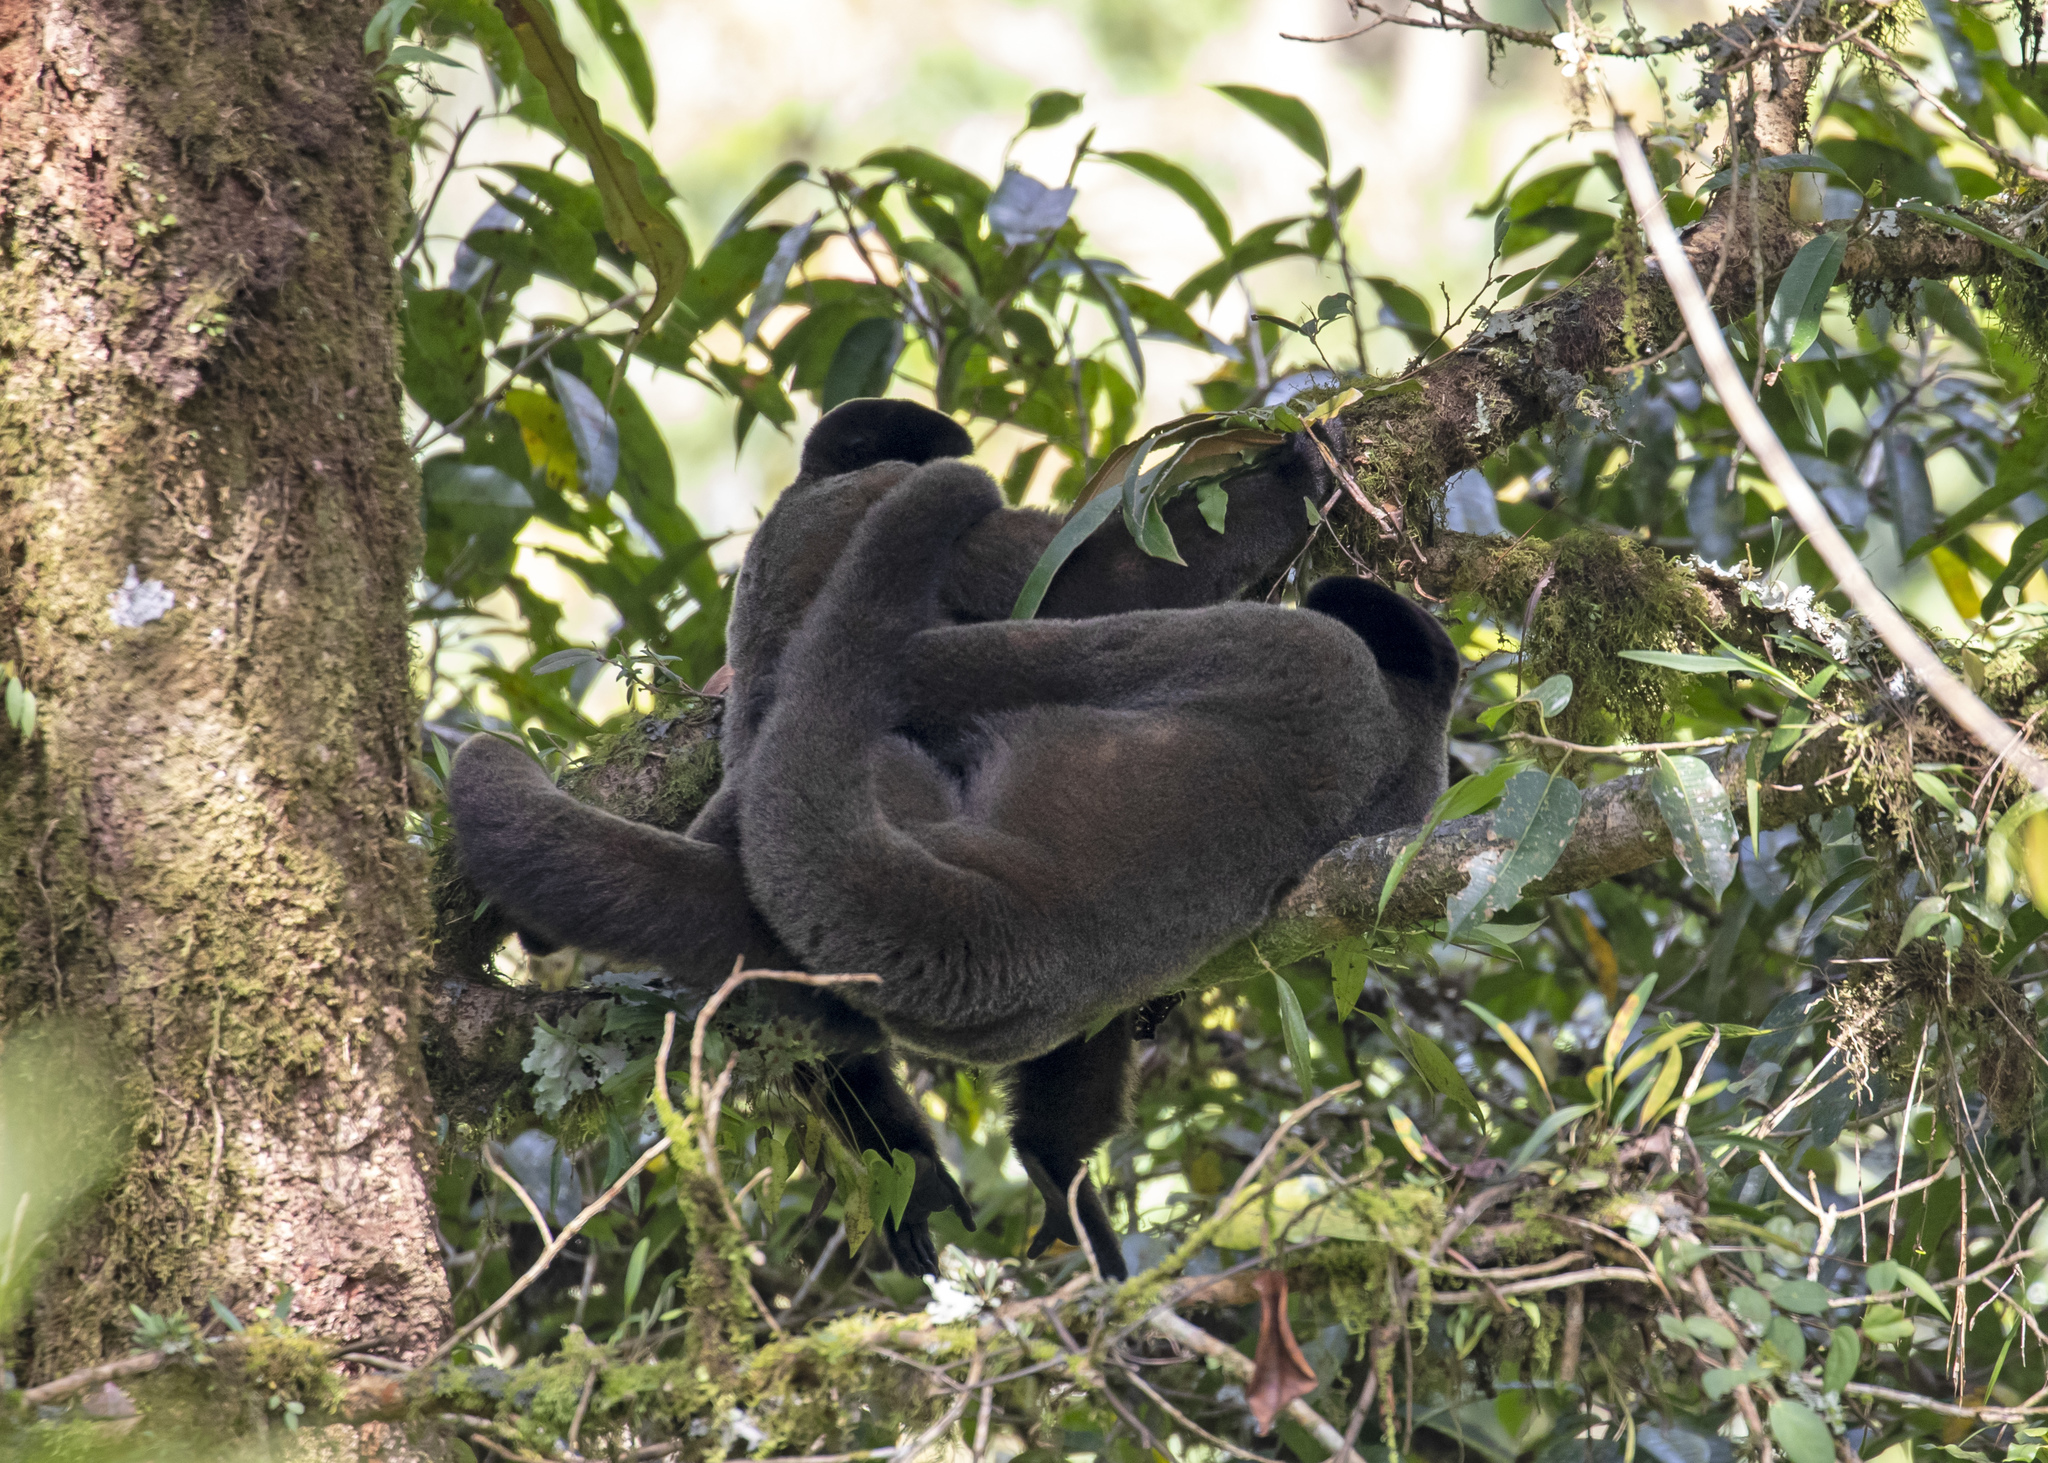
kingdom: Animalia
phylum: Chordata
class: Mammalia
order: Primates
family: Atelidae
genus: Lagothrix
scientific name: Lagothrix lagothricha
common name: Brown woolly monkey
